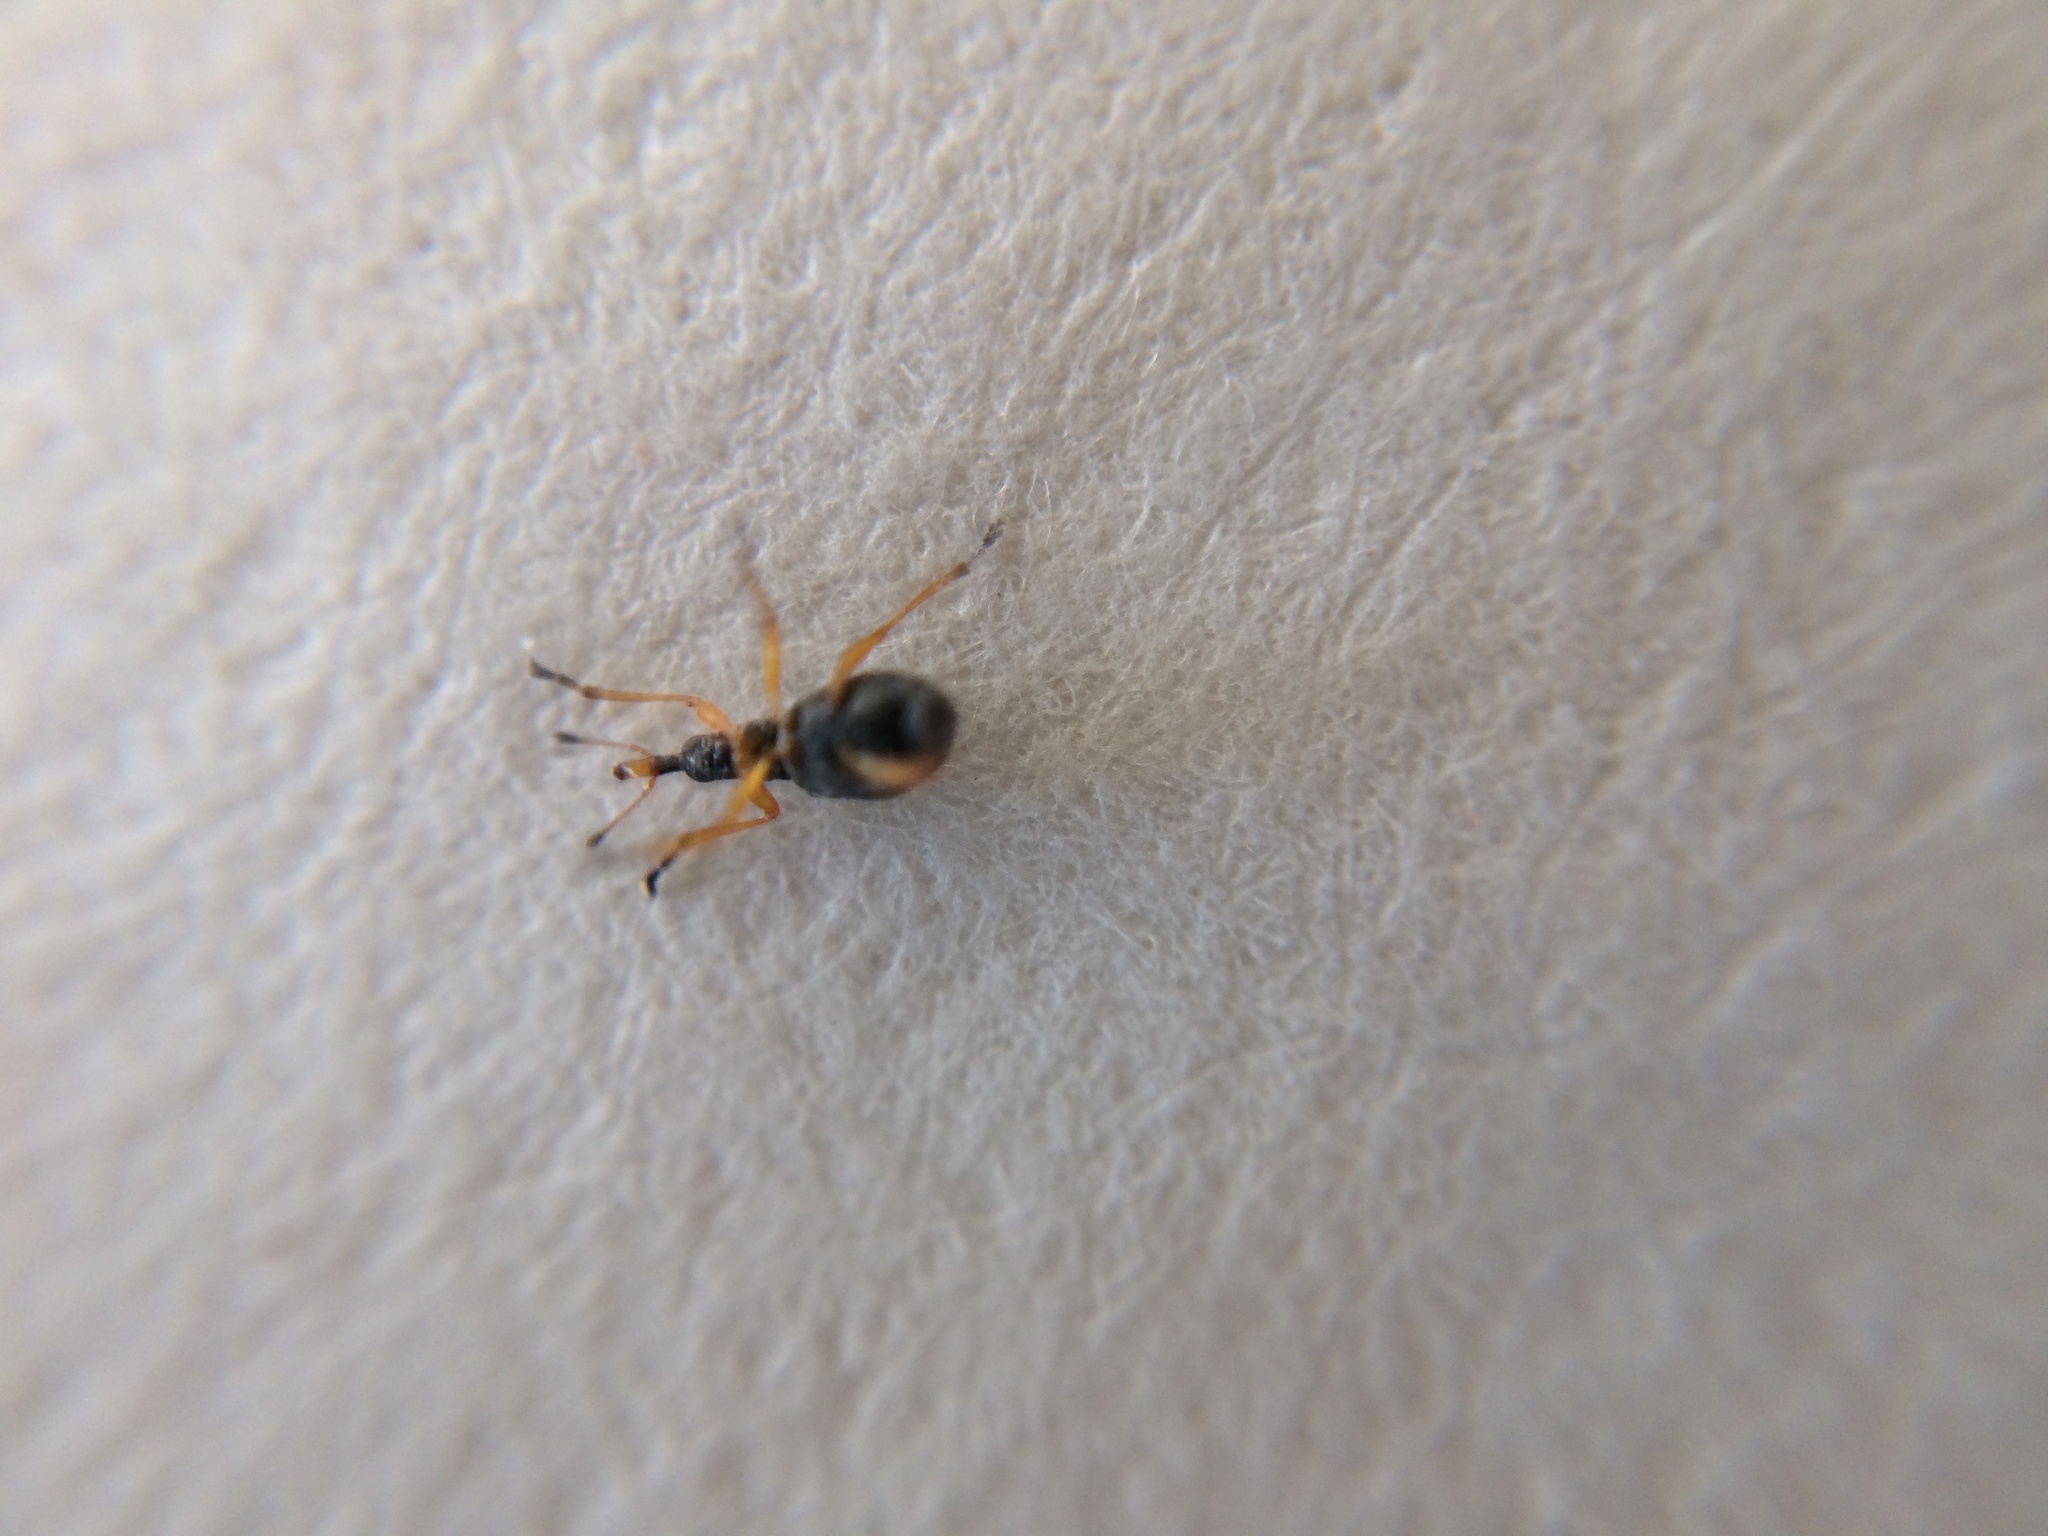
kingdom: Animalia
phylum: Arthropoda
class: Insecta
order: Coleoptera
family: Apionidae
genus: Protapion
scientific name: Protapion nigritarse
